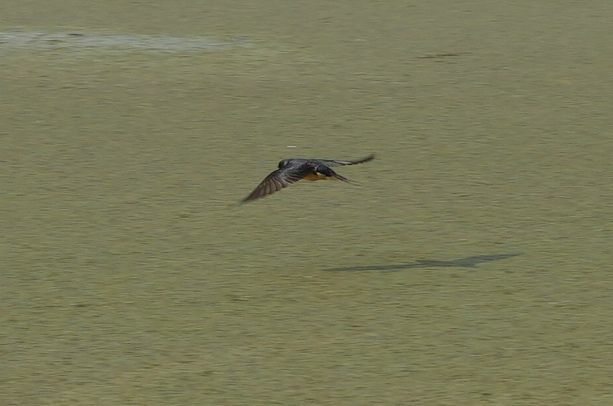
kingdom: Animalia
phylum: Chordata
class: Aves
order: Passeriformes
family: Hirundinidae
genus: Hirundo
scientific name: Hirundo rustica
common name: Barn swallow
